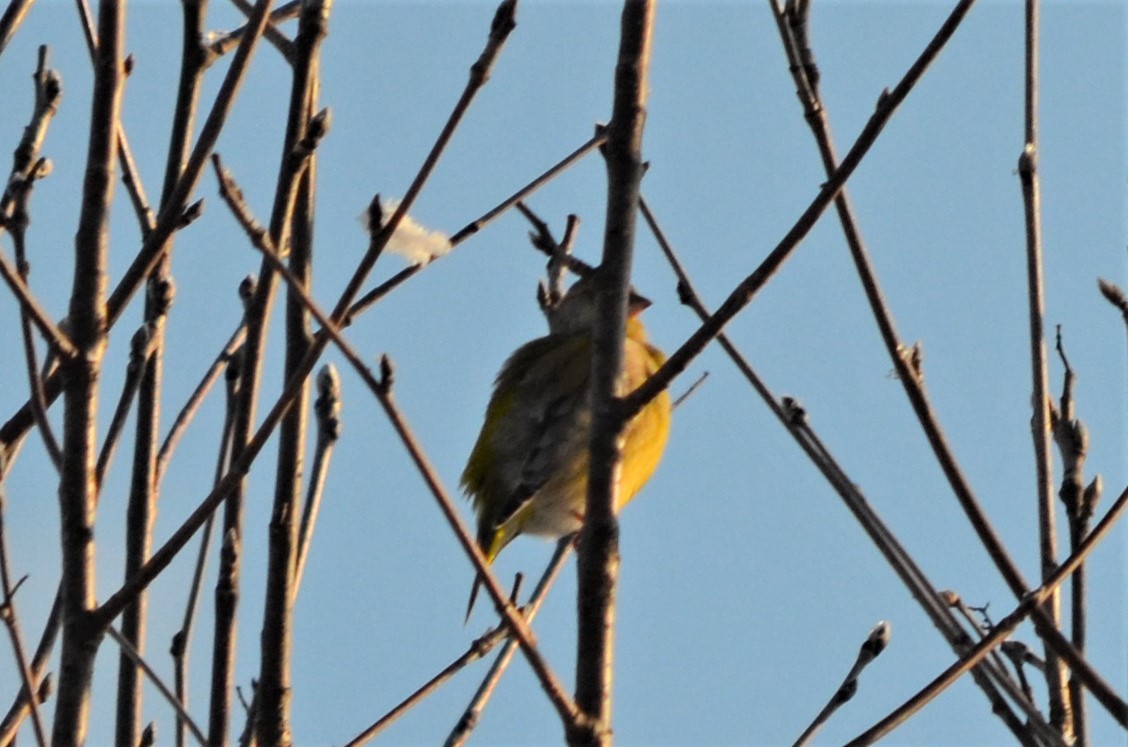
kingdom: Plantae
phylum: Tracheophyta
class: Liliopsida
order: Poales
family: Poaceae
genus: Chloris
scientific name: Chloris chloris
